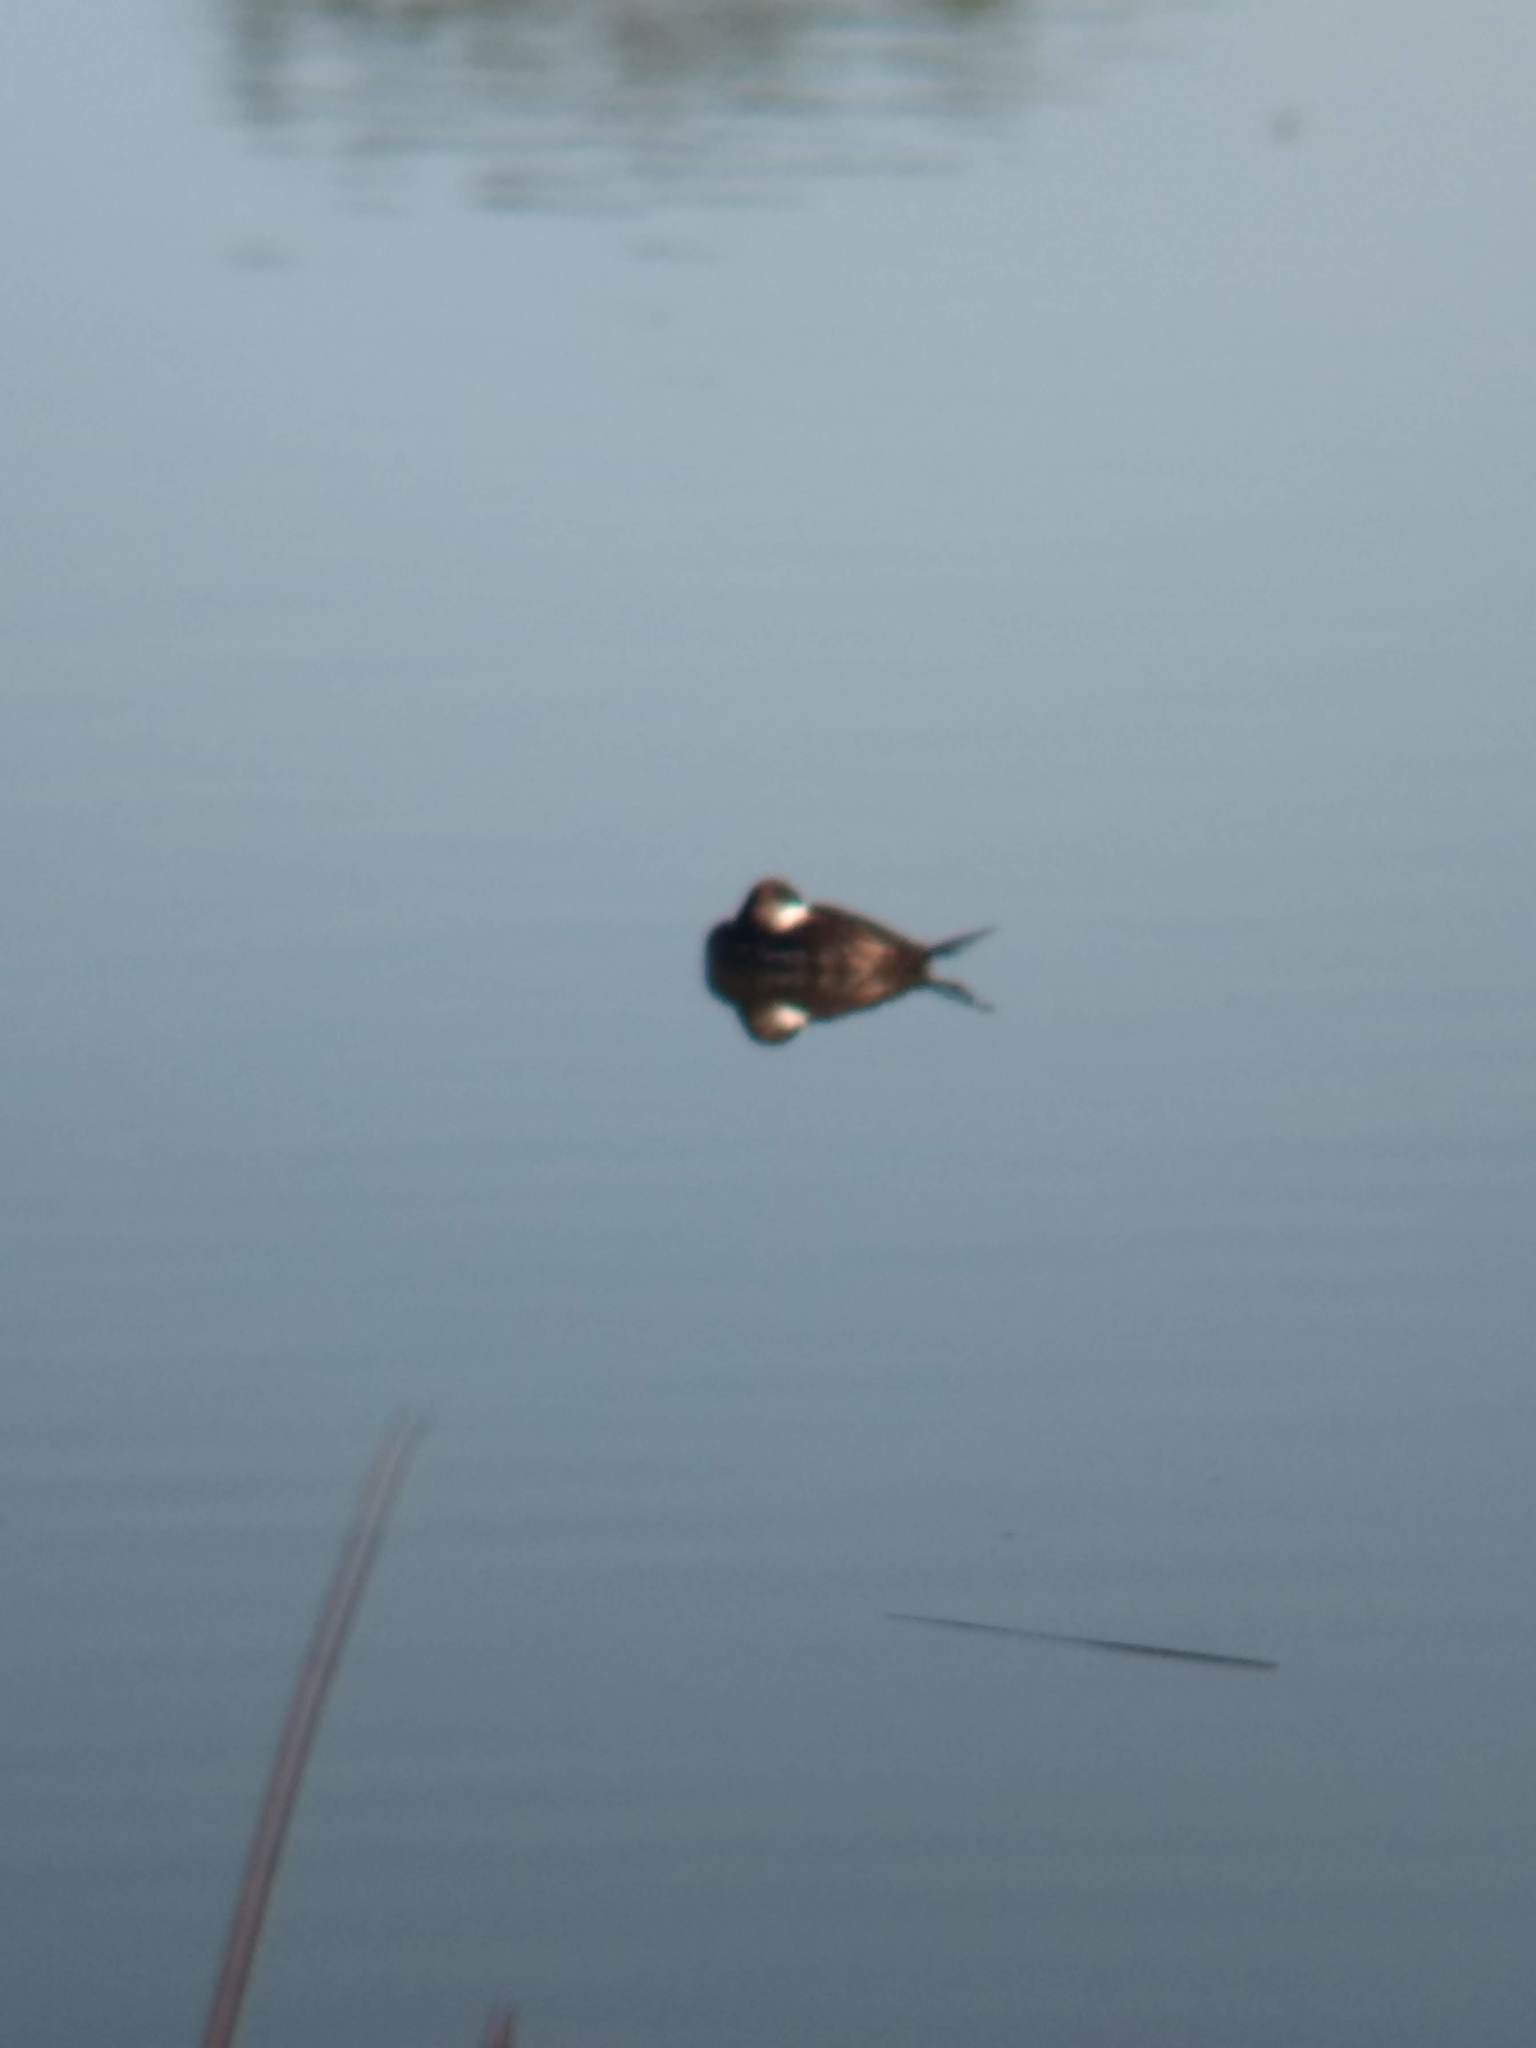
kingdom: Animalia
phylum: Chordata
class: Aves
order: Anseriformes
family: Anatidae
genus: Oxyura
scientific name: Oxyura jamaicensis
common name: Ruddy duck
